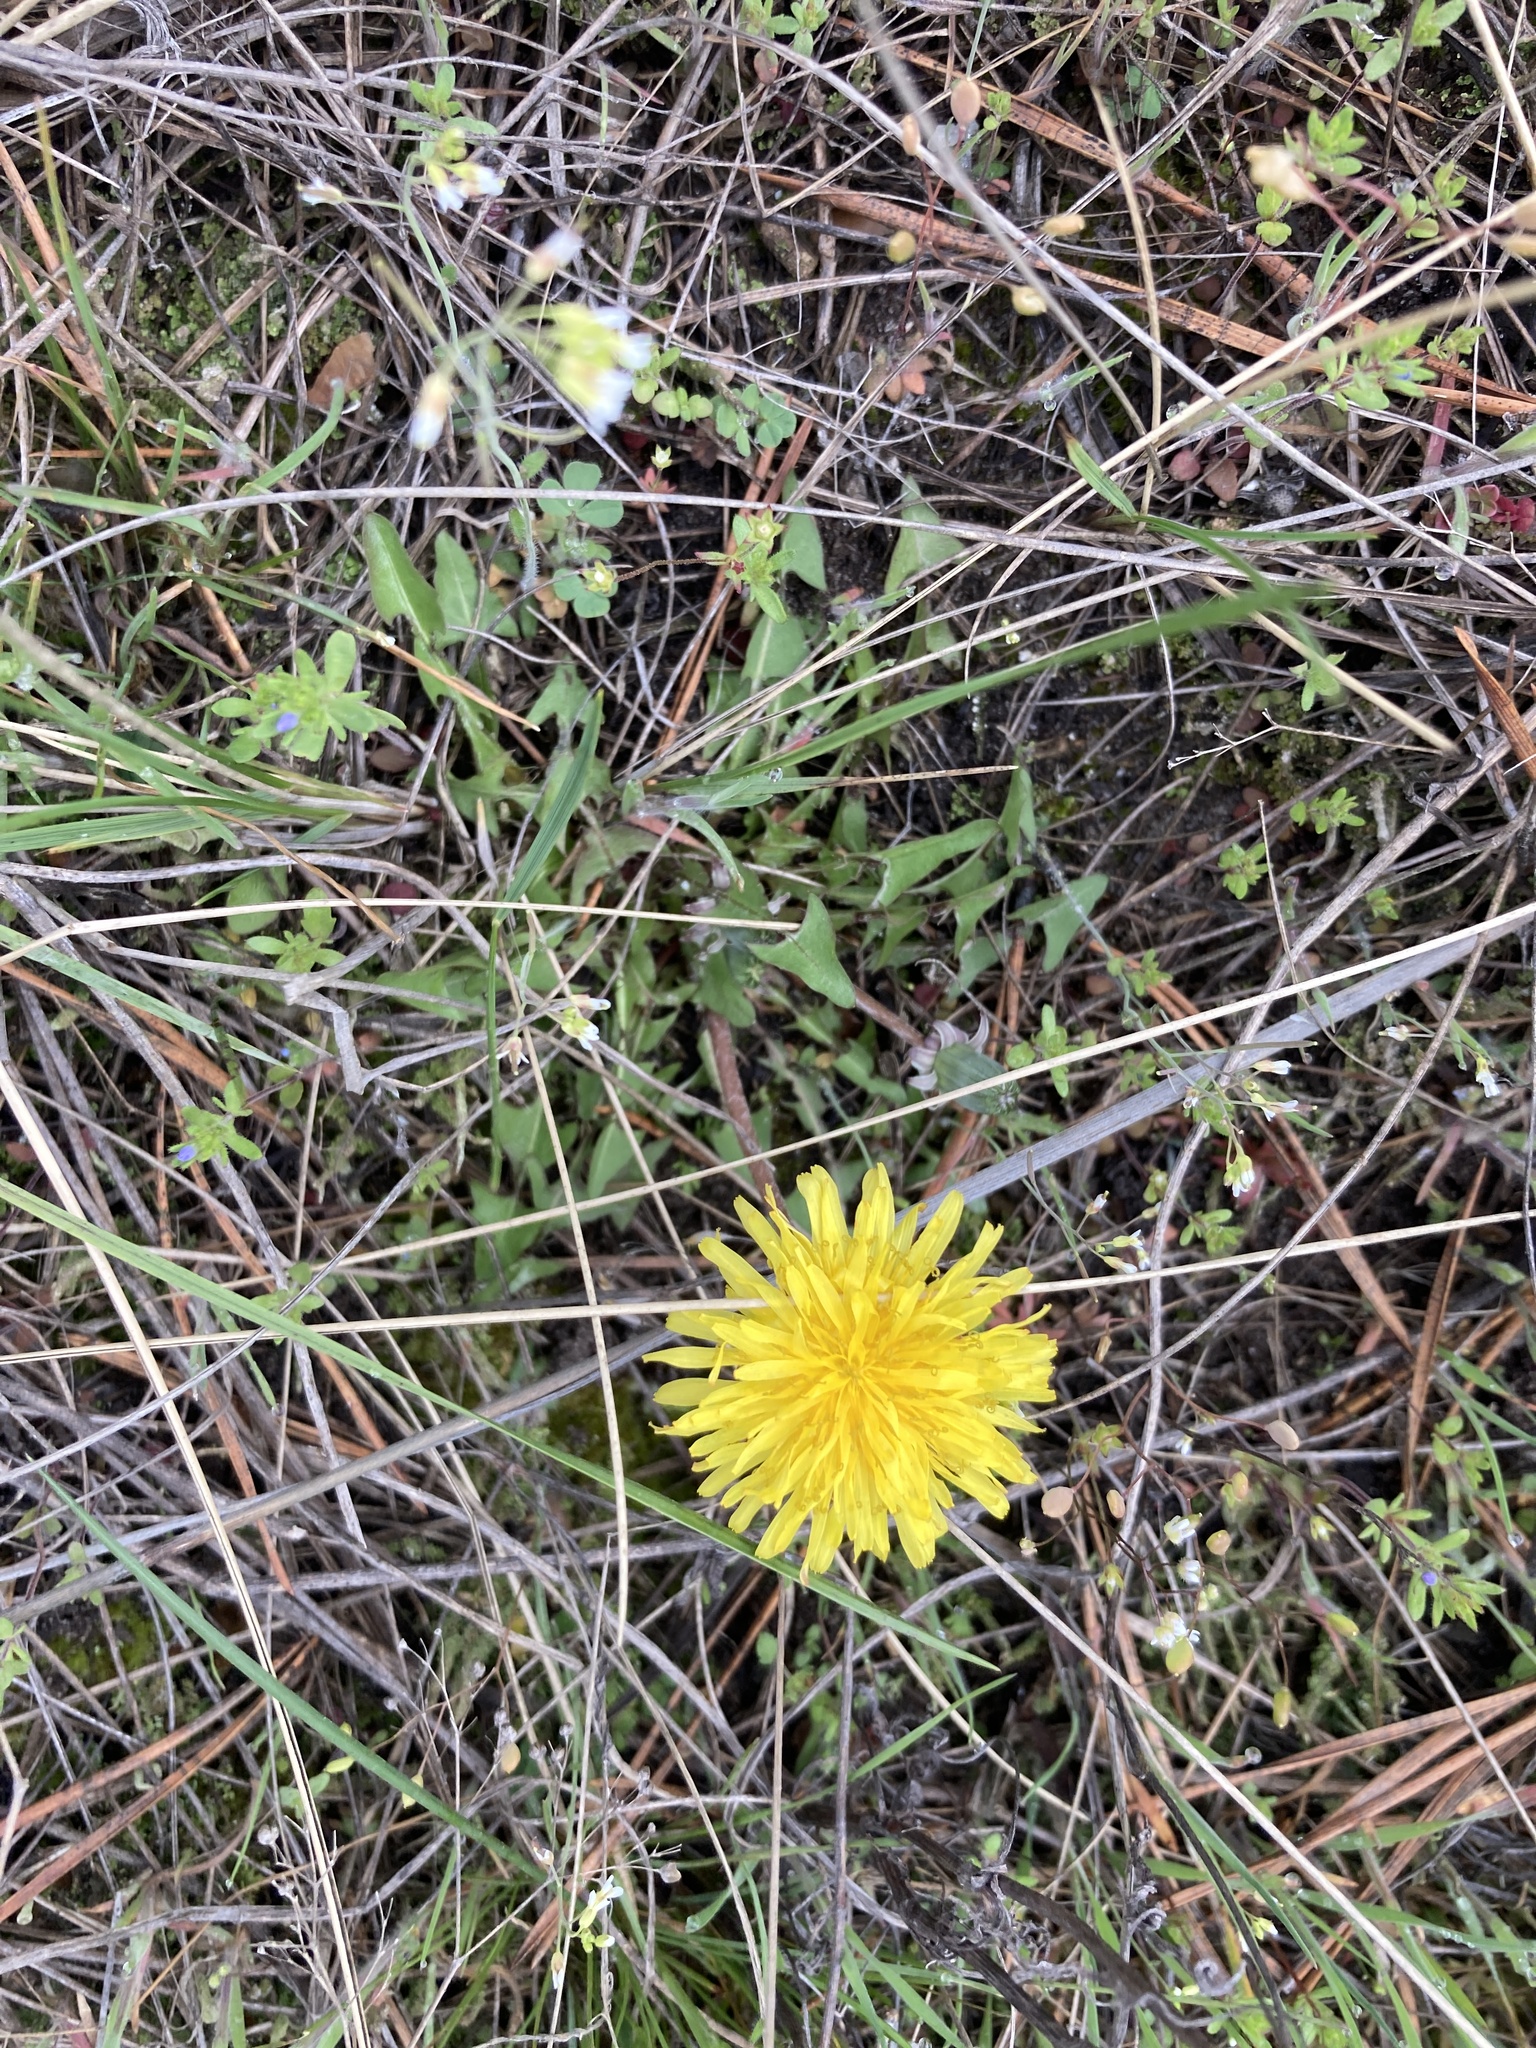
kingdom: Plantae
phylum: Tracheophyta
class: Magnoliopsida
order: Asterales
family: Asteraceae
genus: Taraxacum
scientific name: Taraxacum
